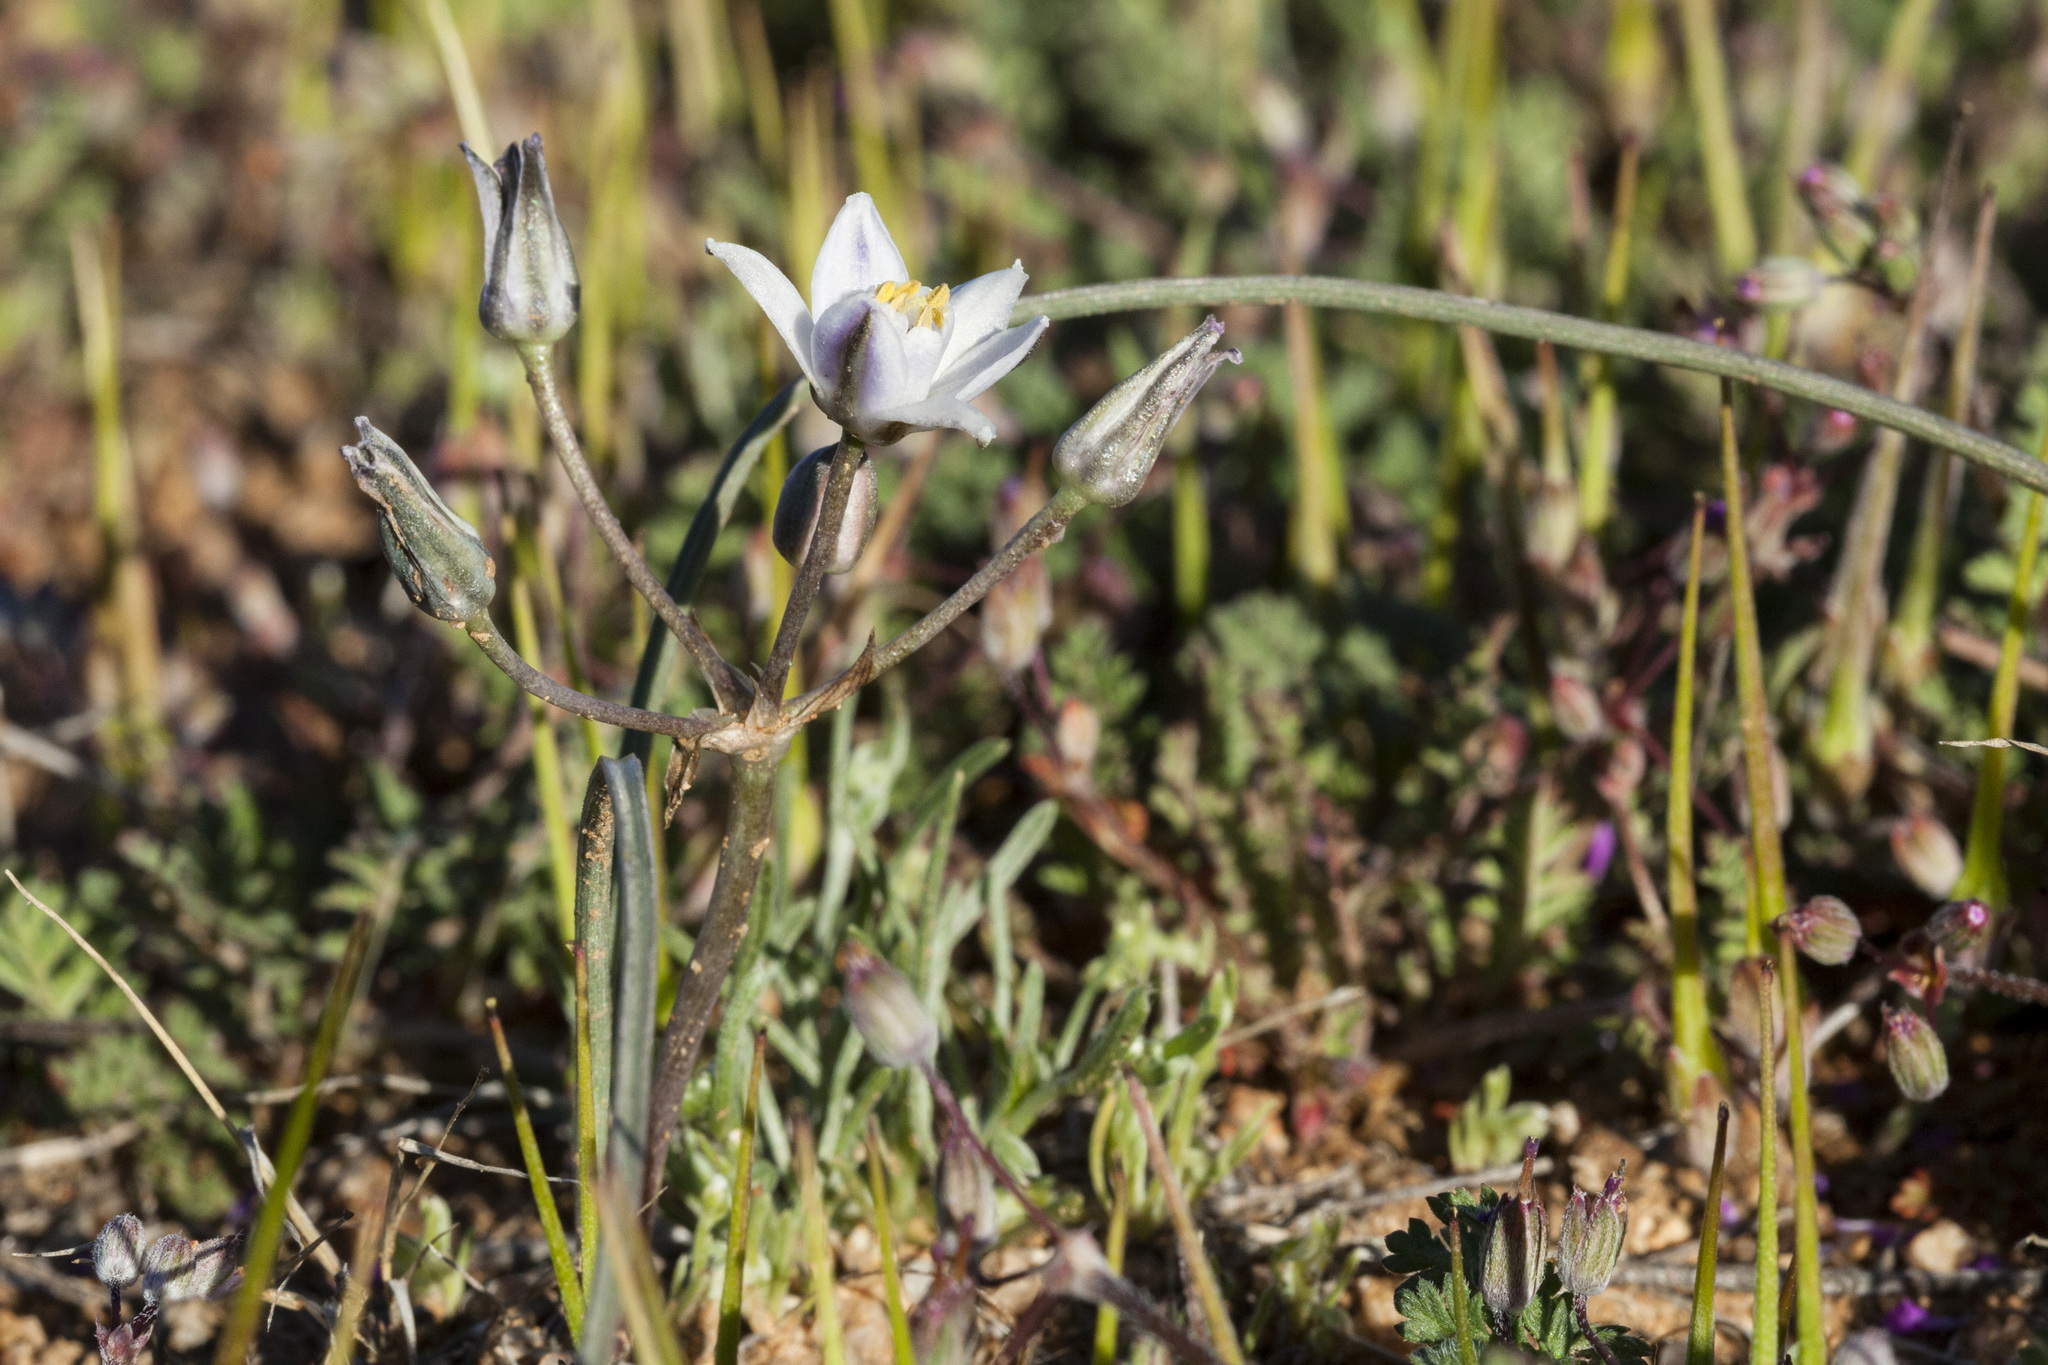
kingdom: Plantae
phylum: Tracheophyta
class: Liliopsida
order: Asparagales
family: Asparagaceae
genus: Muilla
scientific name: Muilla lordsburgana
